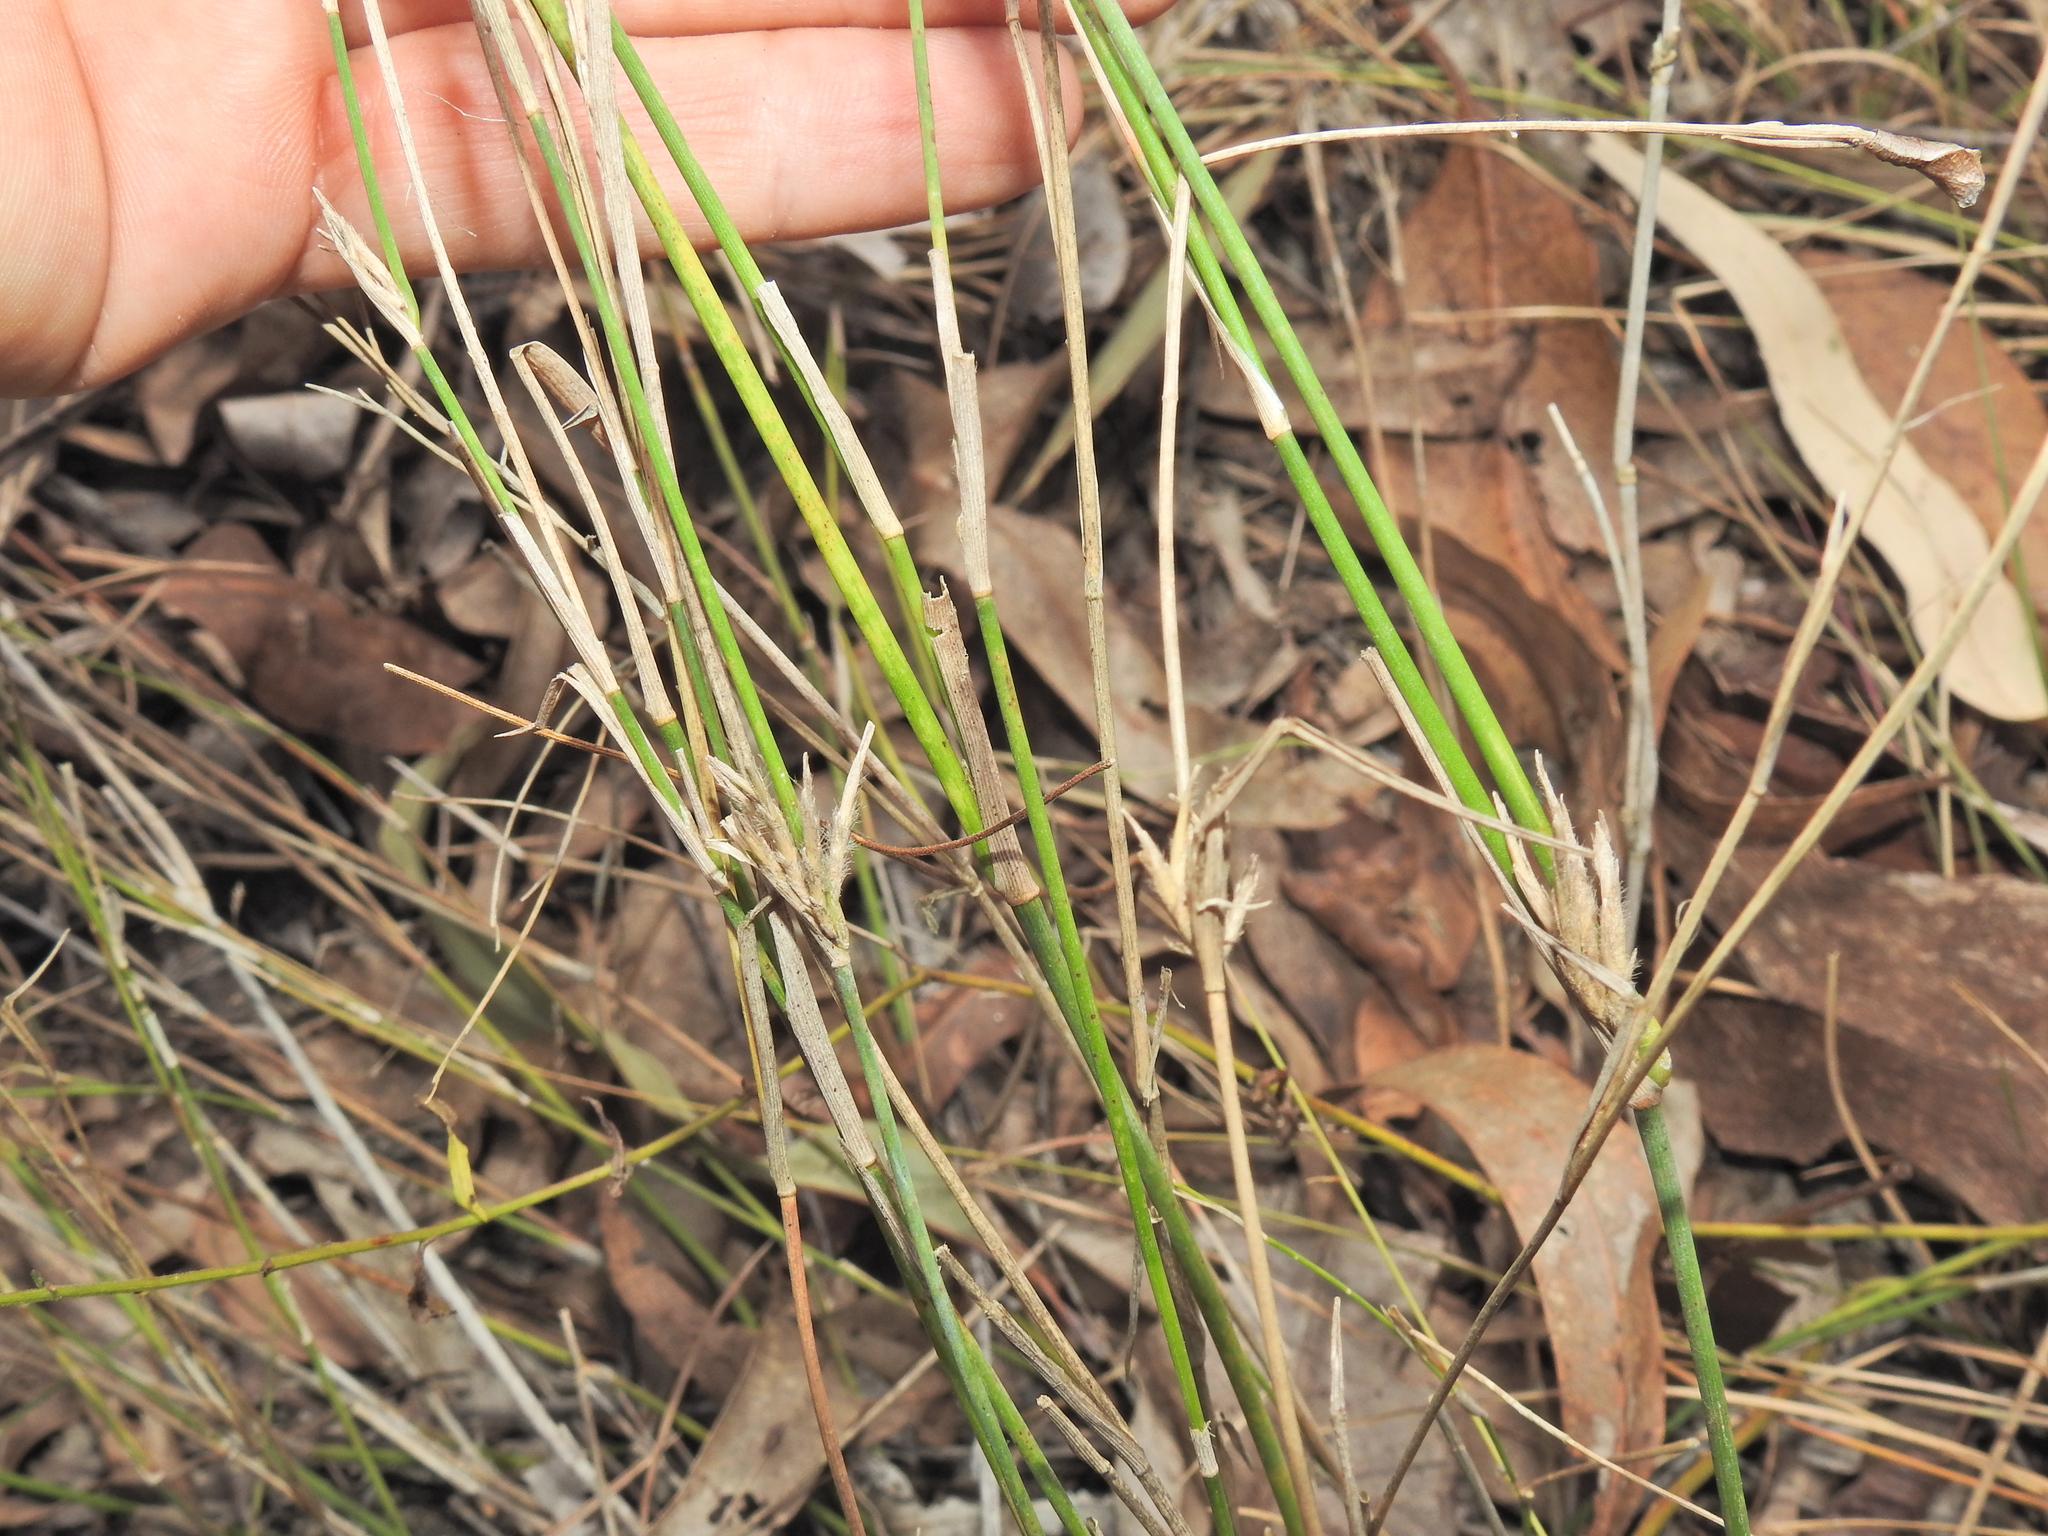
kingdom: Plantae
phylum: Tracheophyta
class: Liliopsida
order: Poales
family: Poaceae
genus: Entolasia
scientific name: Entolasia stricta
